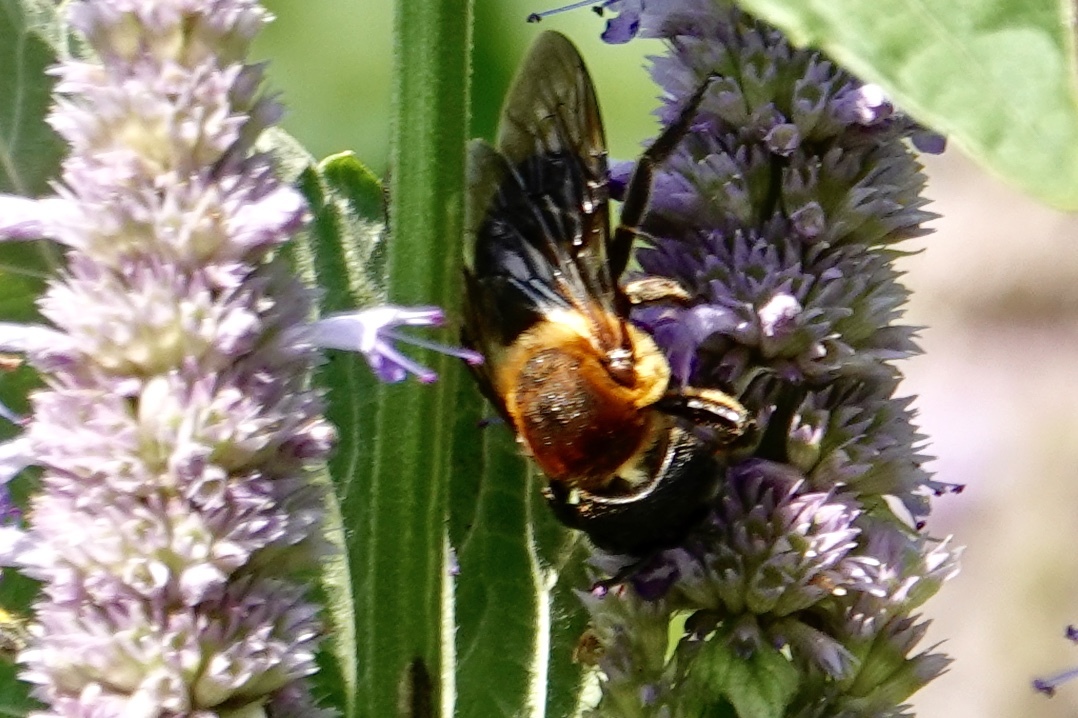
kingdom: Animalia
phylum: Arthropoda
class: Insecta
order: Hymenoptera
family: Megachilidae
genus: Megachile
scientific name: Megachile sculpturalis
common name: Sculptured resin bee
